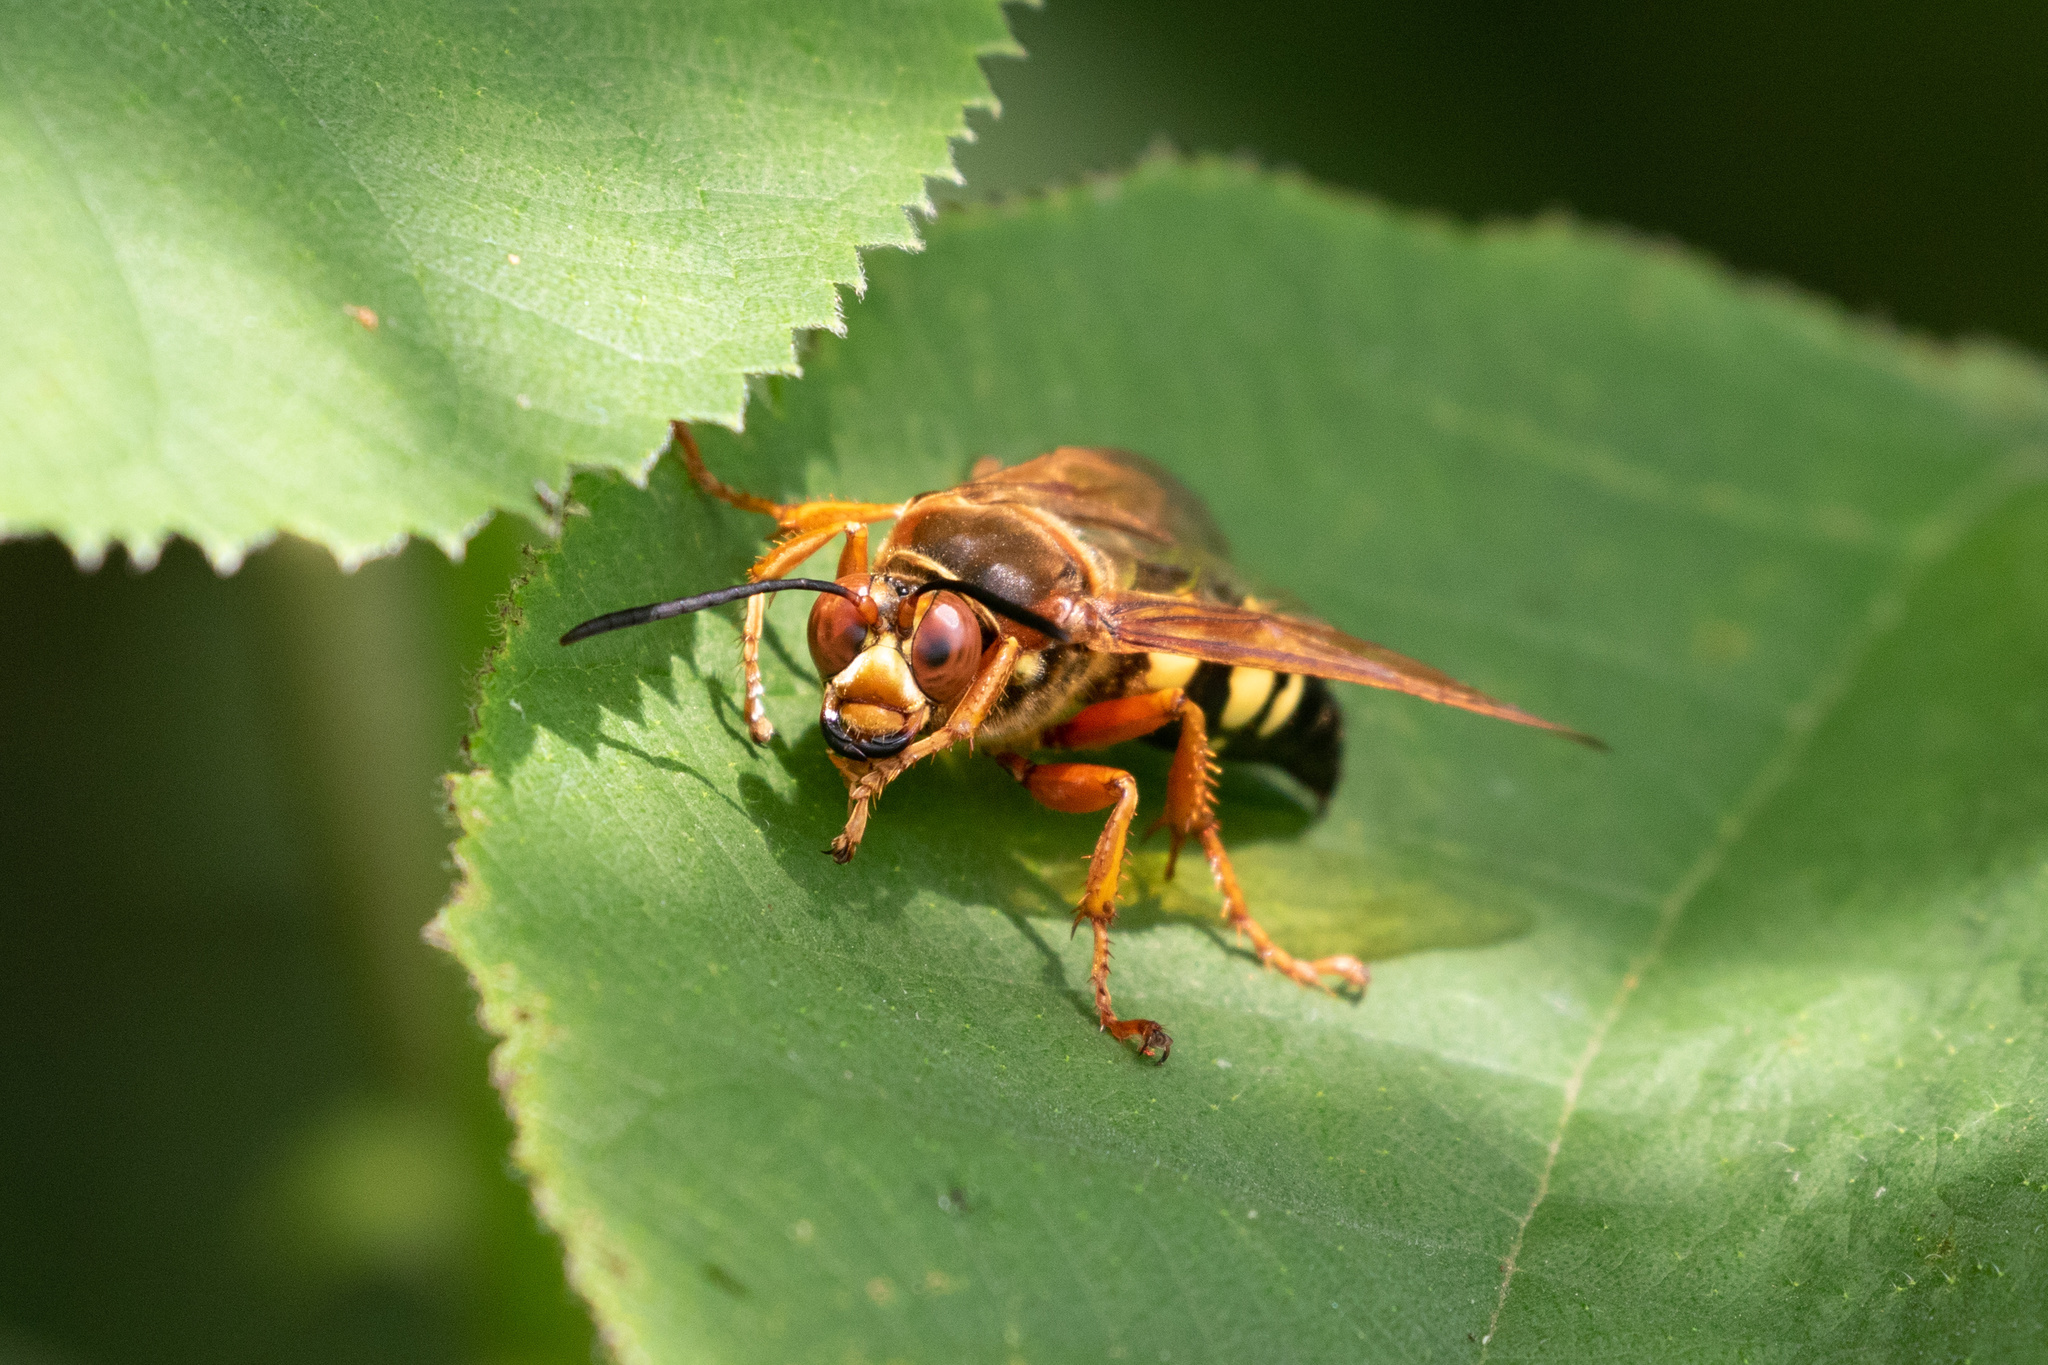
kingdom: Animalia
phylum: Arthropoda
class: Insecta
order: Hymenoptera
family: Crabronidae
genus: Sphecius
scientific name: Sphecius speciosus
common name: Cicada killer
